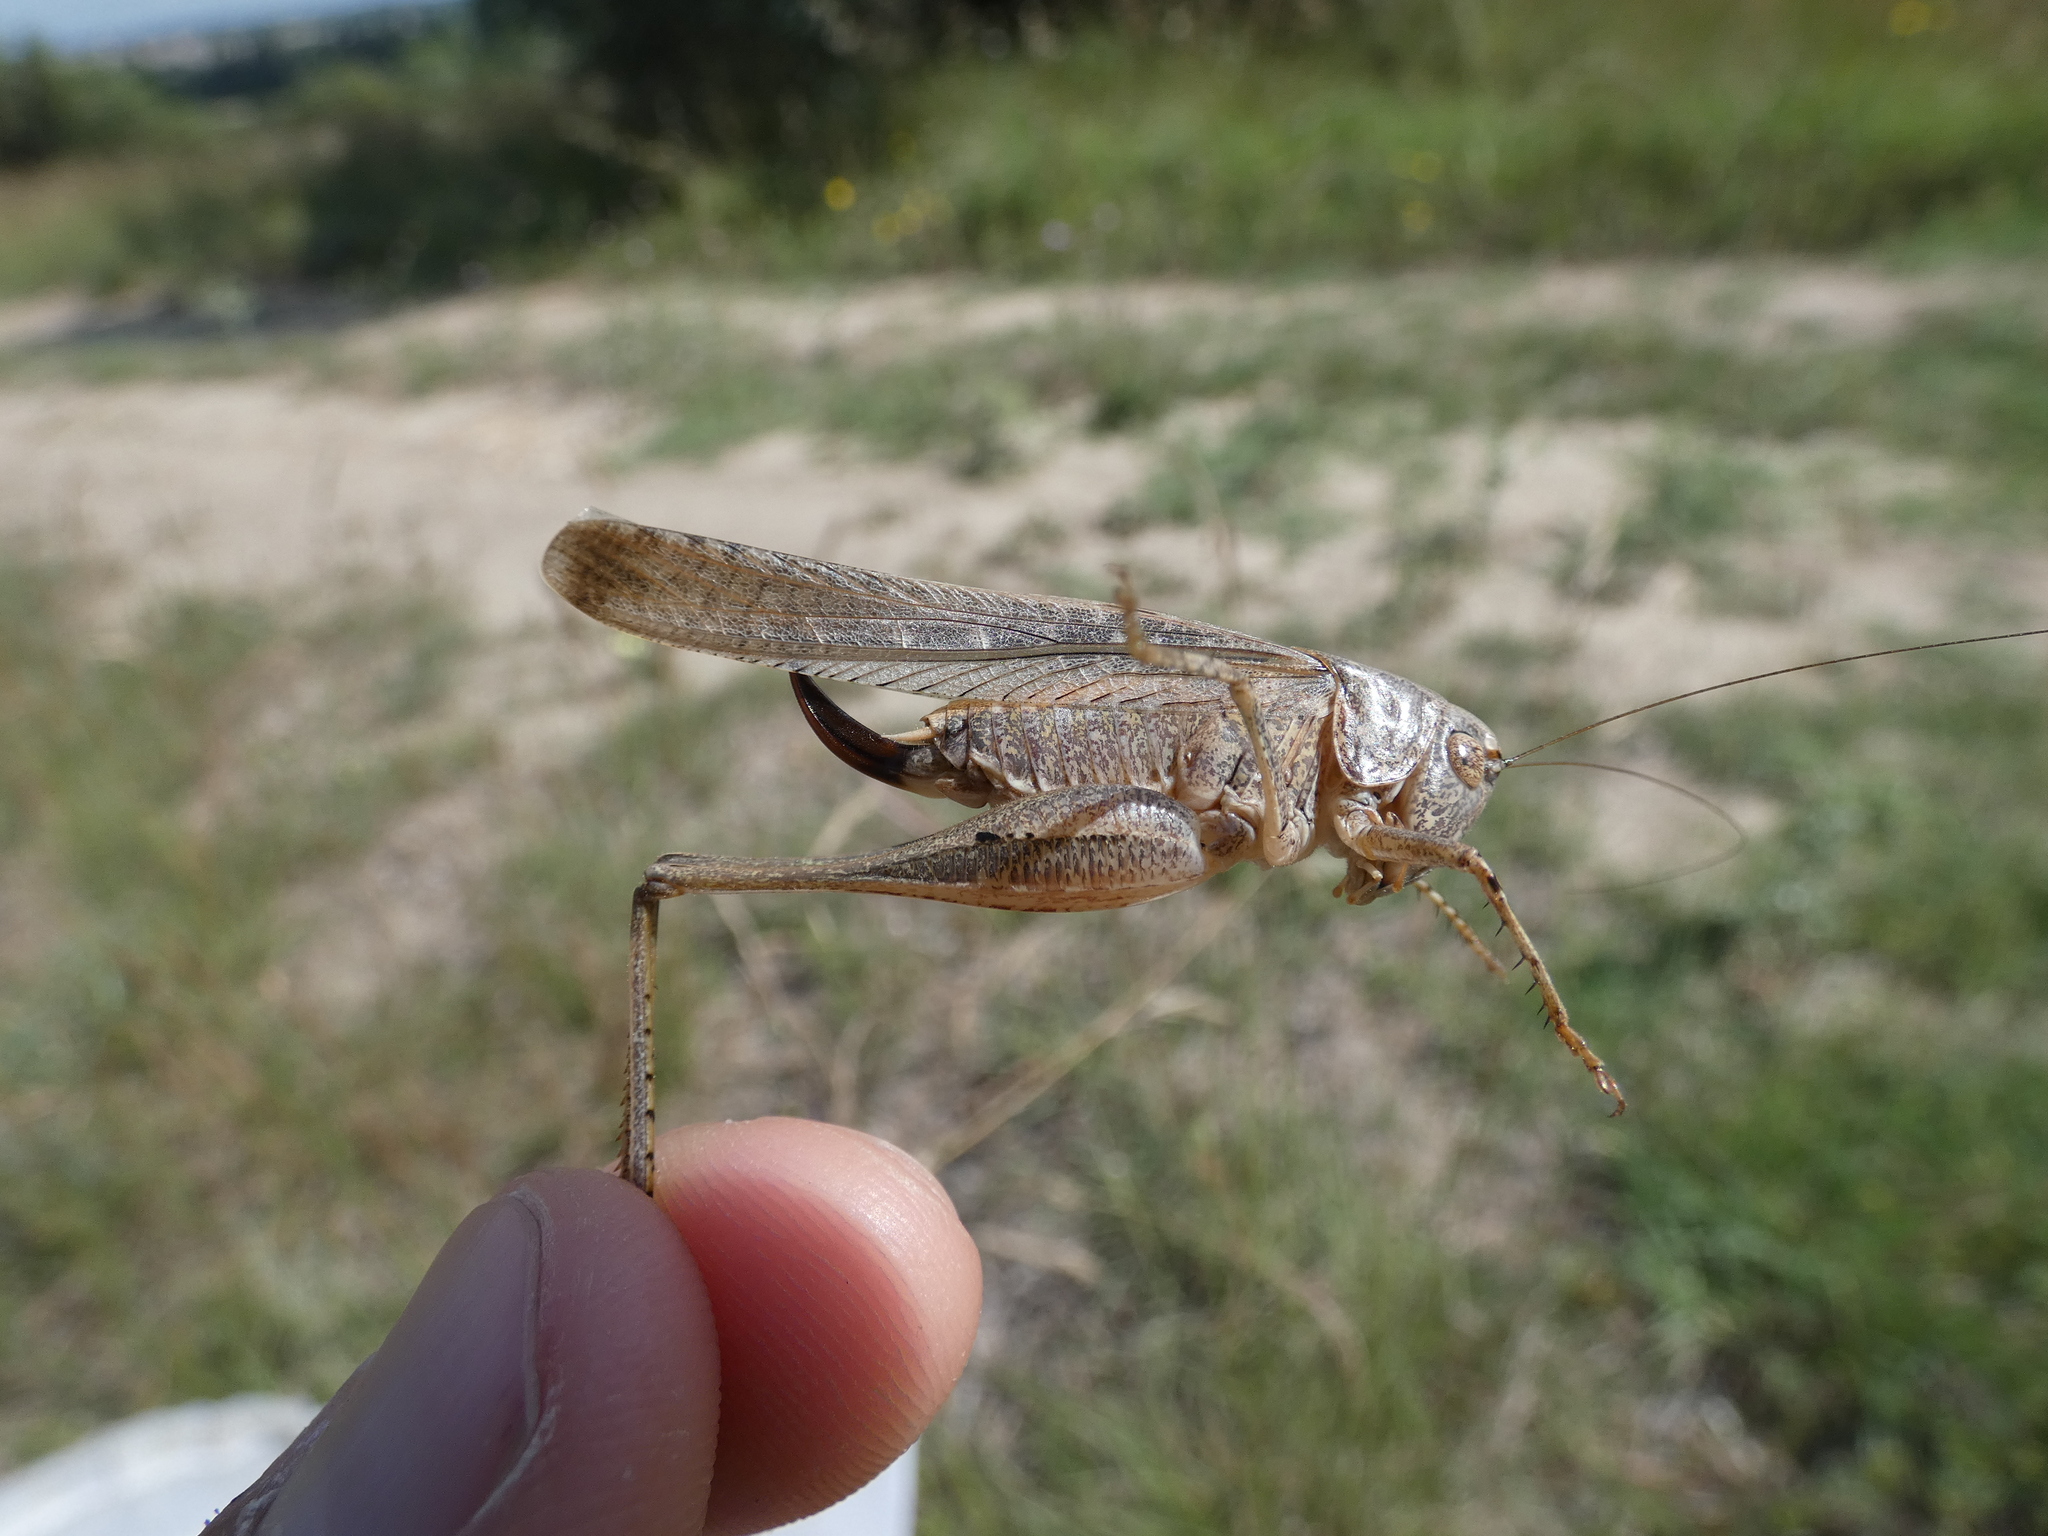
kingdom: Animalia
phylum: Arthropoda
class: Insecta
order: Orthoptera
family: Tettigoniidae
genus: Platycleis
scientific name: Platycleis falx
